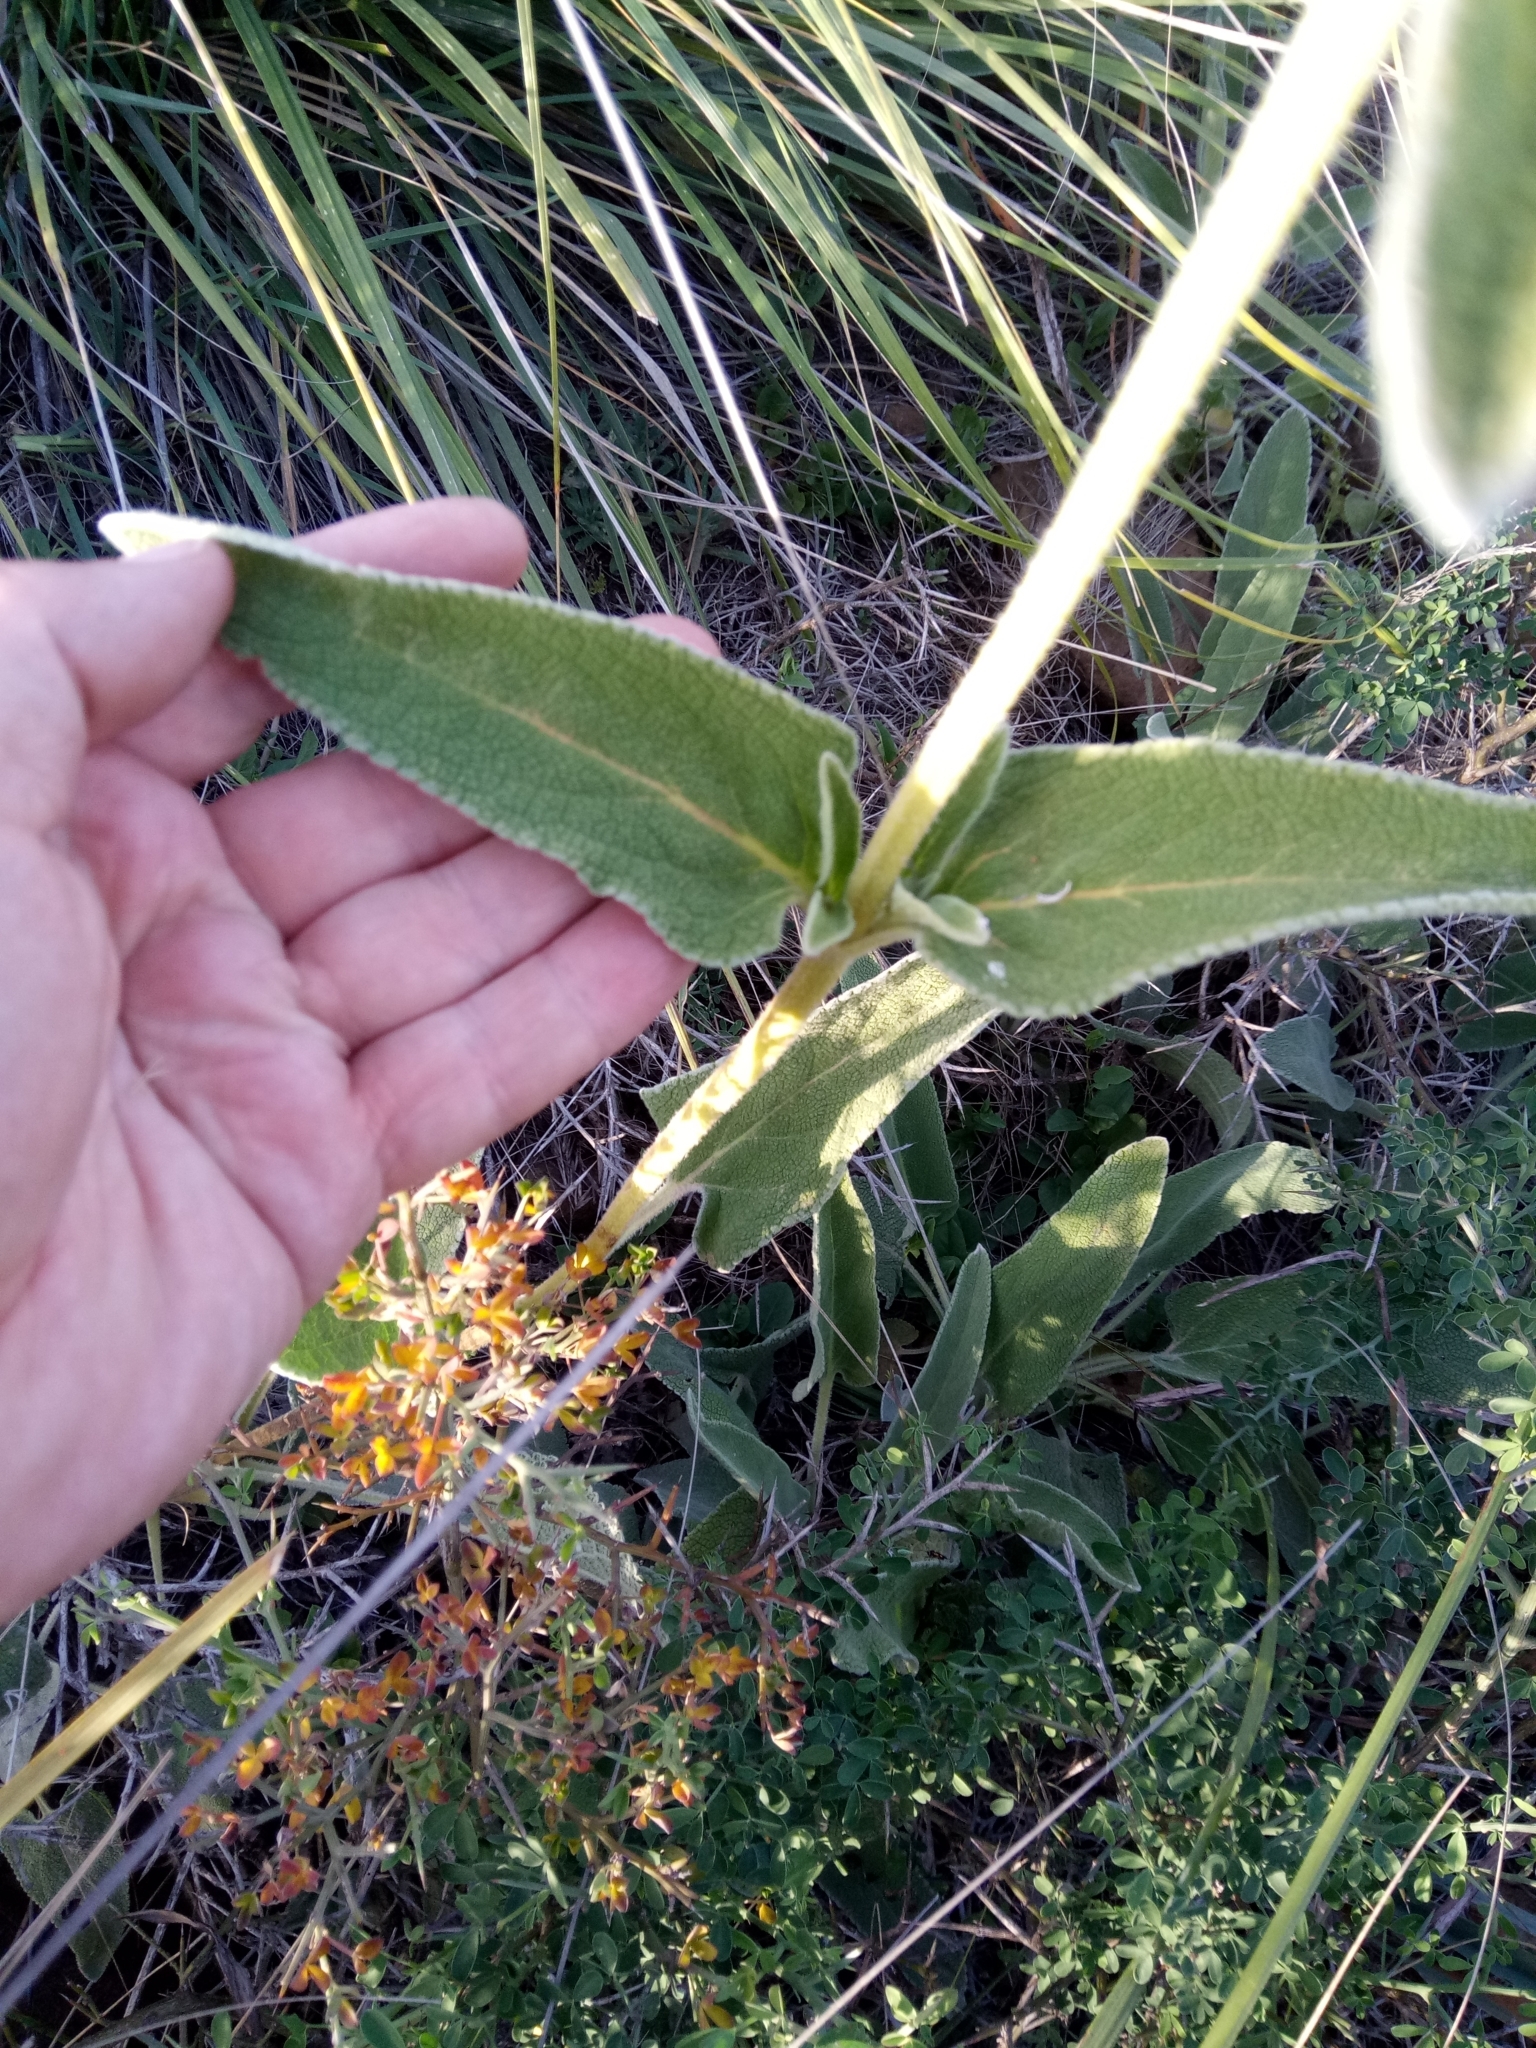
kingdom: Plantae
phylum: Tracheophyta
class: Magnoliopsida
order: Lamiales
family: Lamiaceae
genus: Phlomis
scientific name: Phlomis crinita
